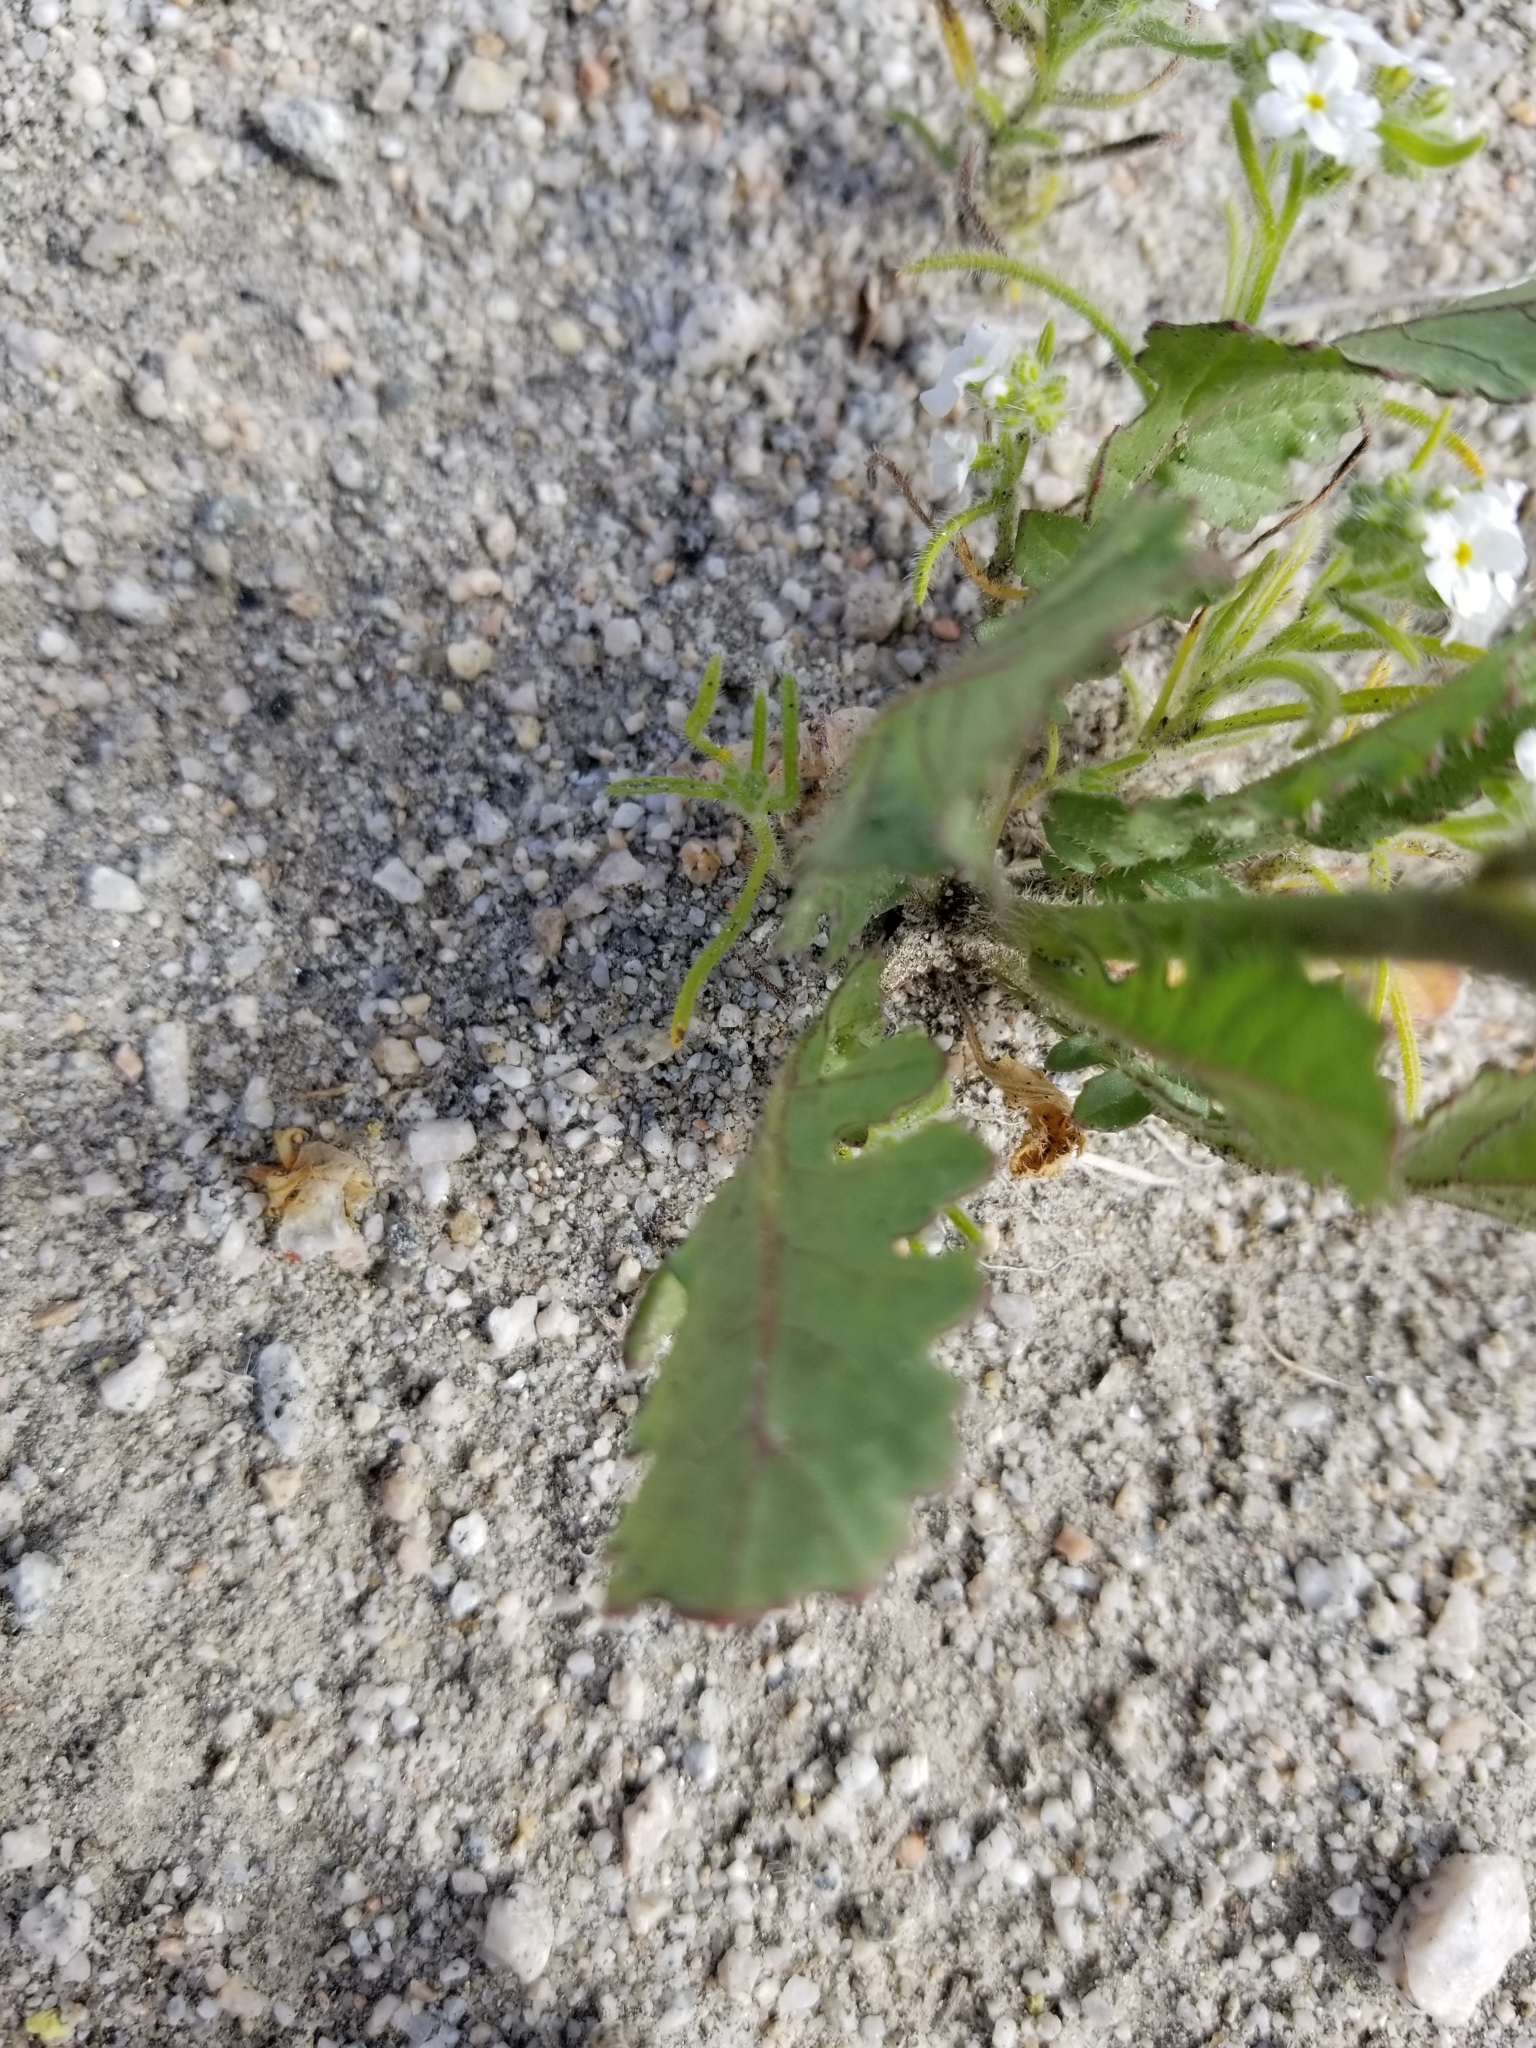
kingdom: Plantae
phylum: Tracheophyta
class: Magnoliopsida
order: Brassicales
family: Brassicaceae
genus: Brassica
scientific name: Brassica tournefortii
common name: Pale cabbage
